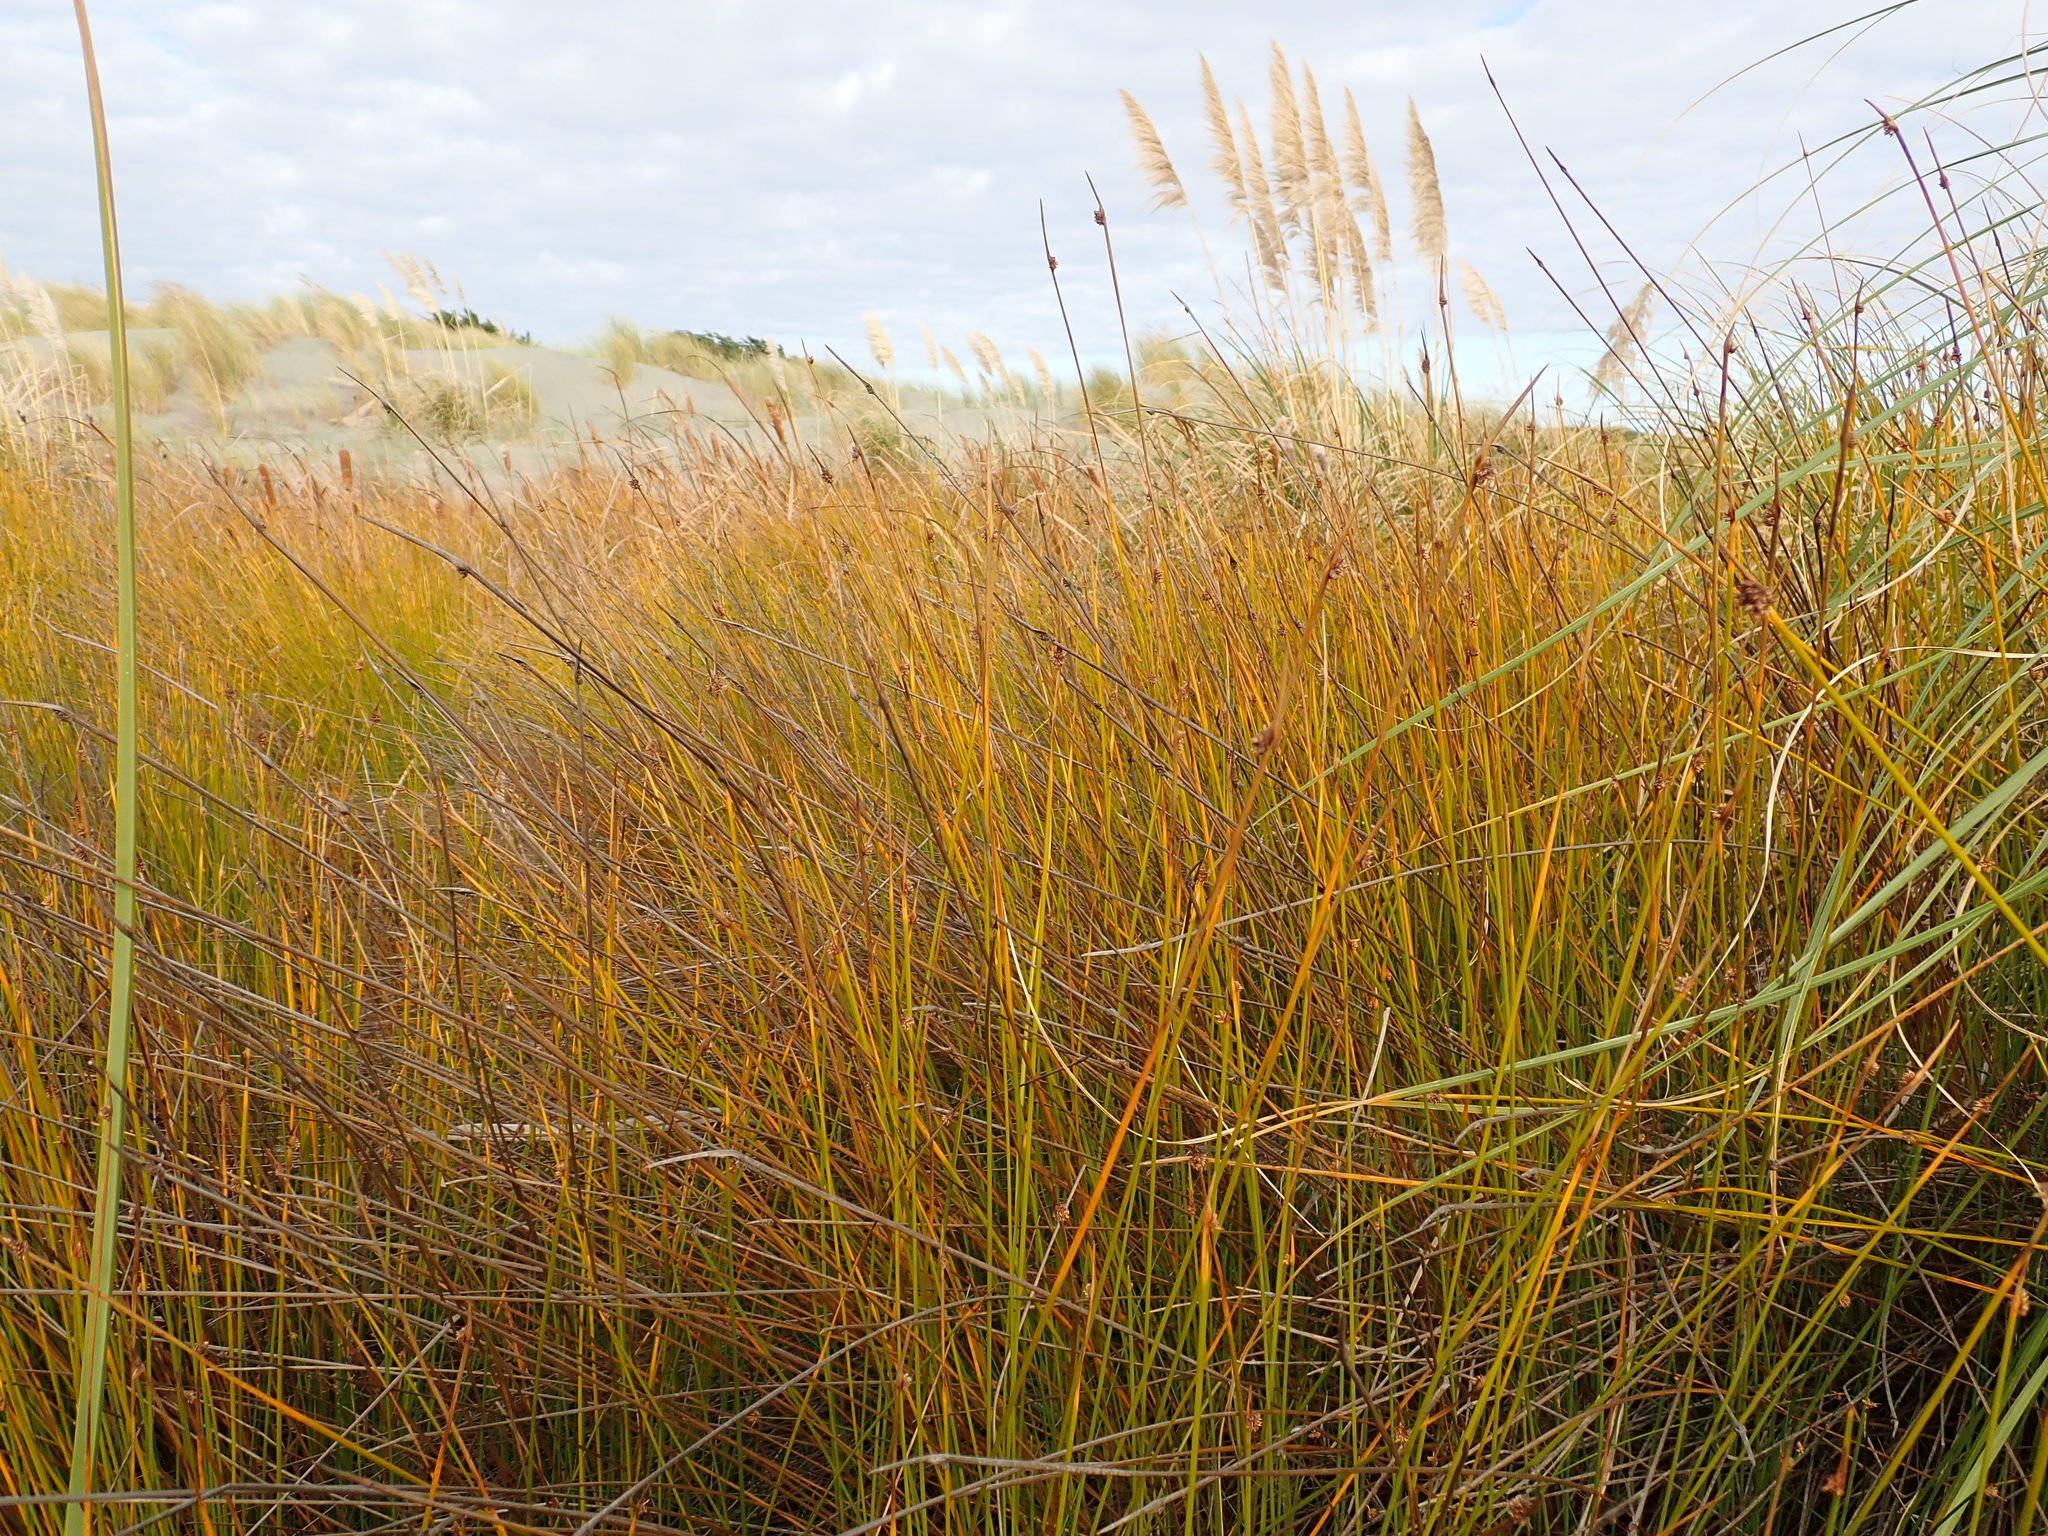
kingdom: Plantae
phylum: Tracheophyta
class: Liliopsida
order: Poales
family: Cyperaceae
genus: Ficinia
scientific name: Ficinia nodosa
